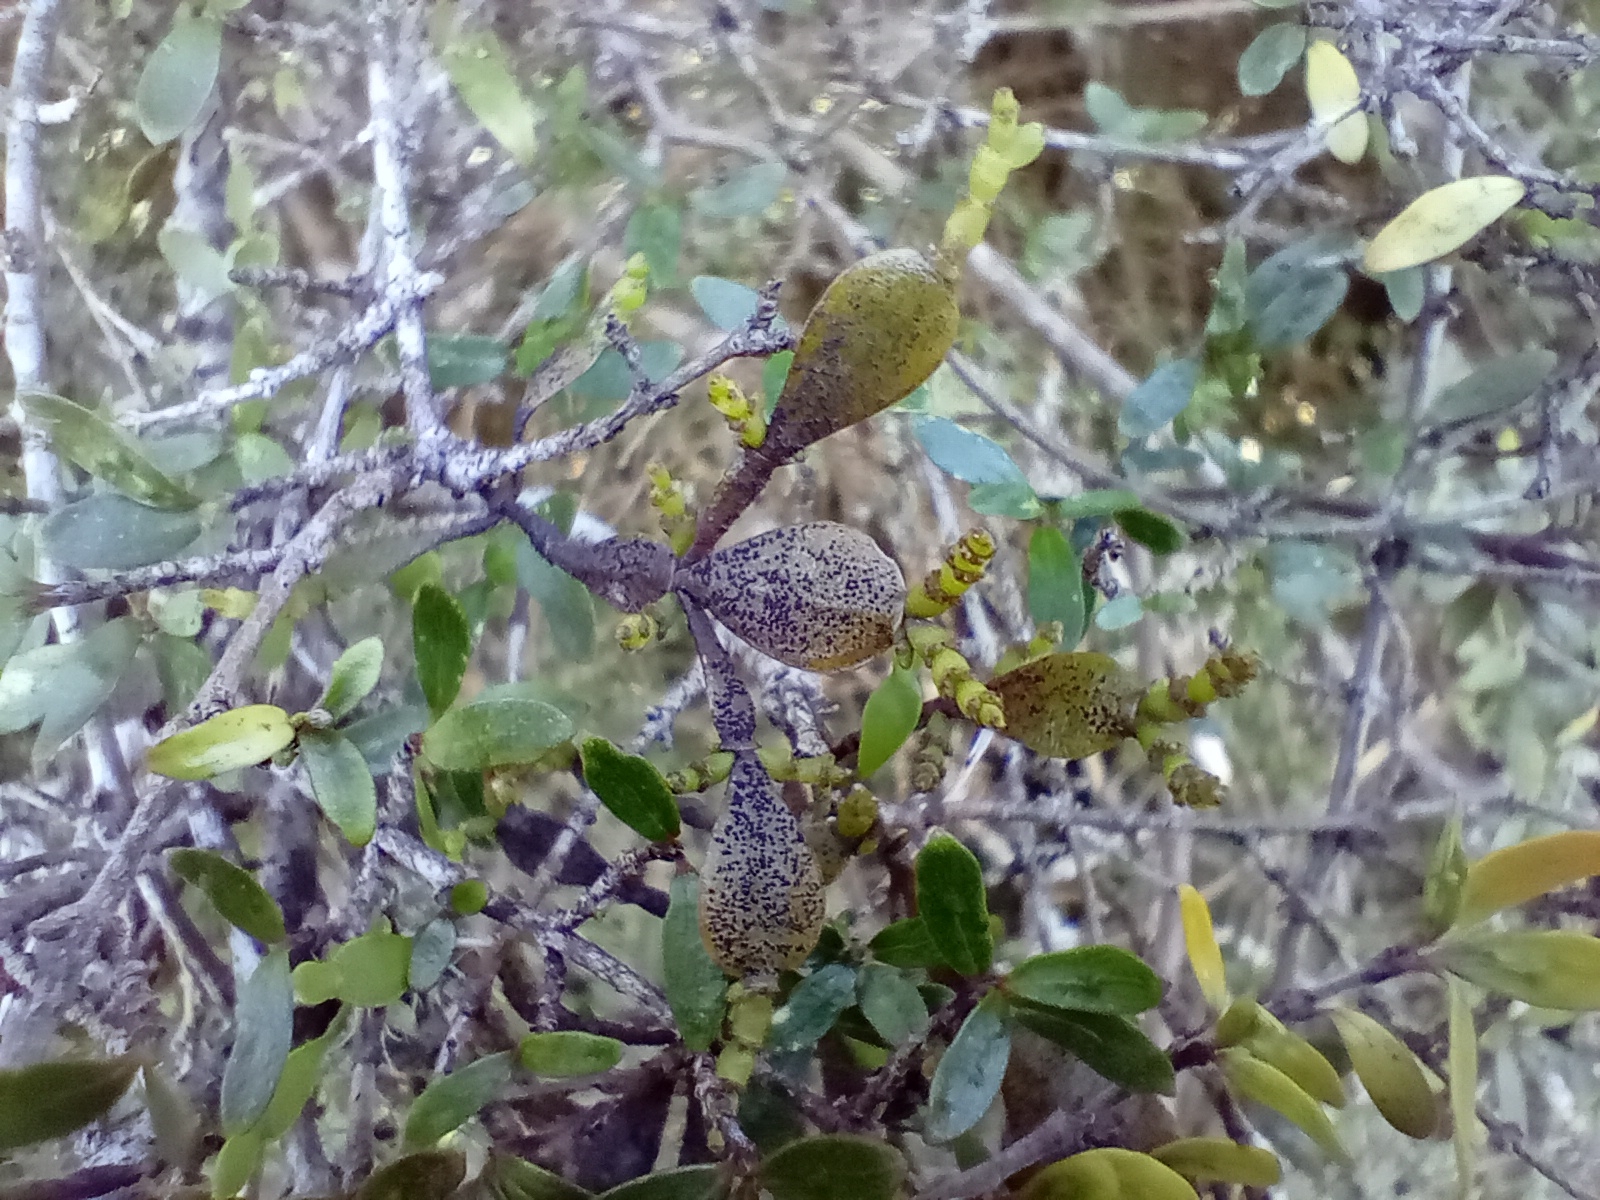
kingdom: Plantae
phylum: Tracheophyta
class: Magnoliopsida
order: Santalales
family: Viscaceae
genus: Korthalsella
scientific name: Korthalsella lindsayi
